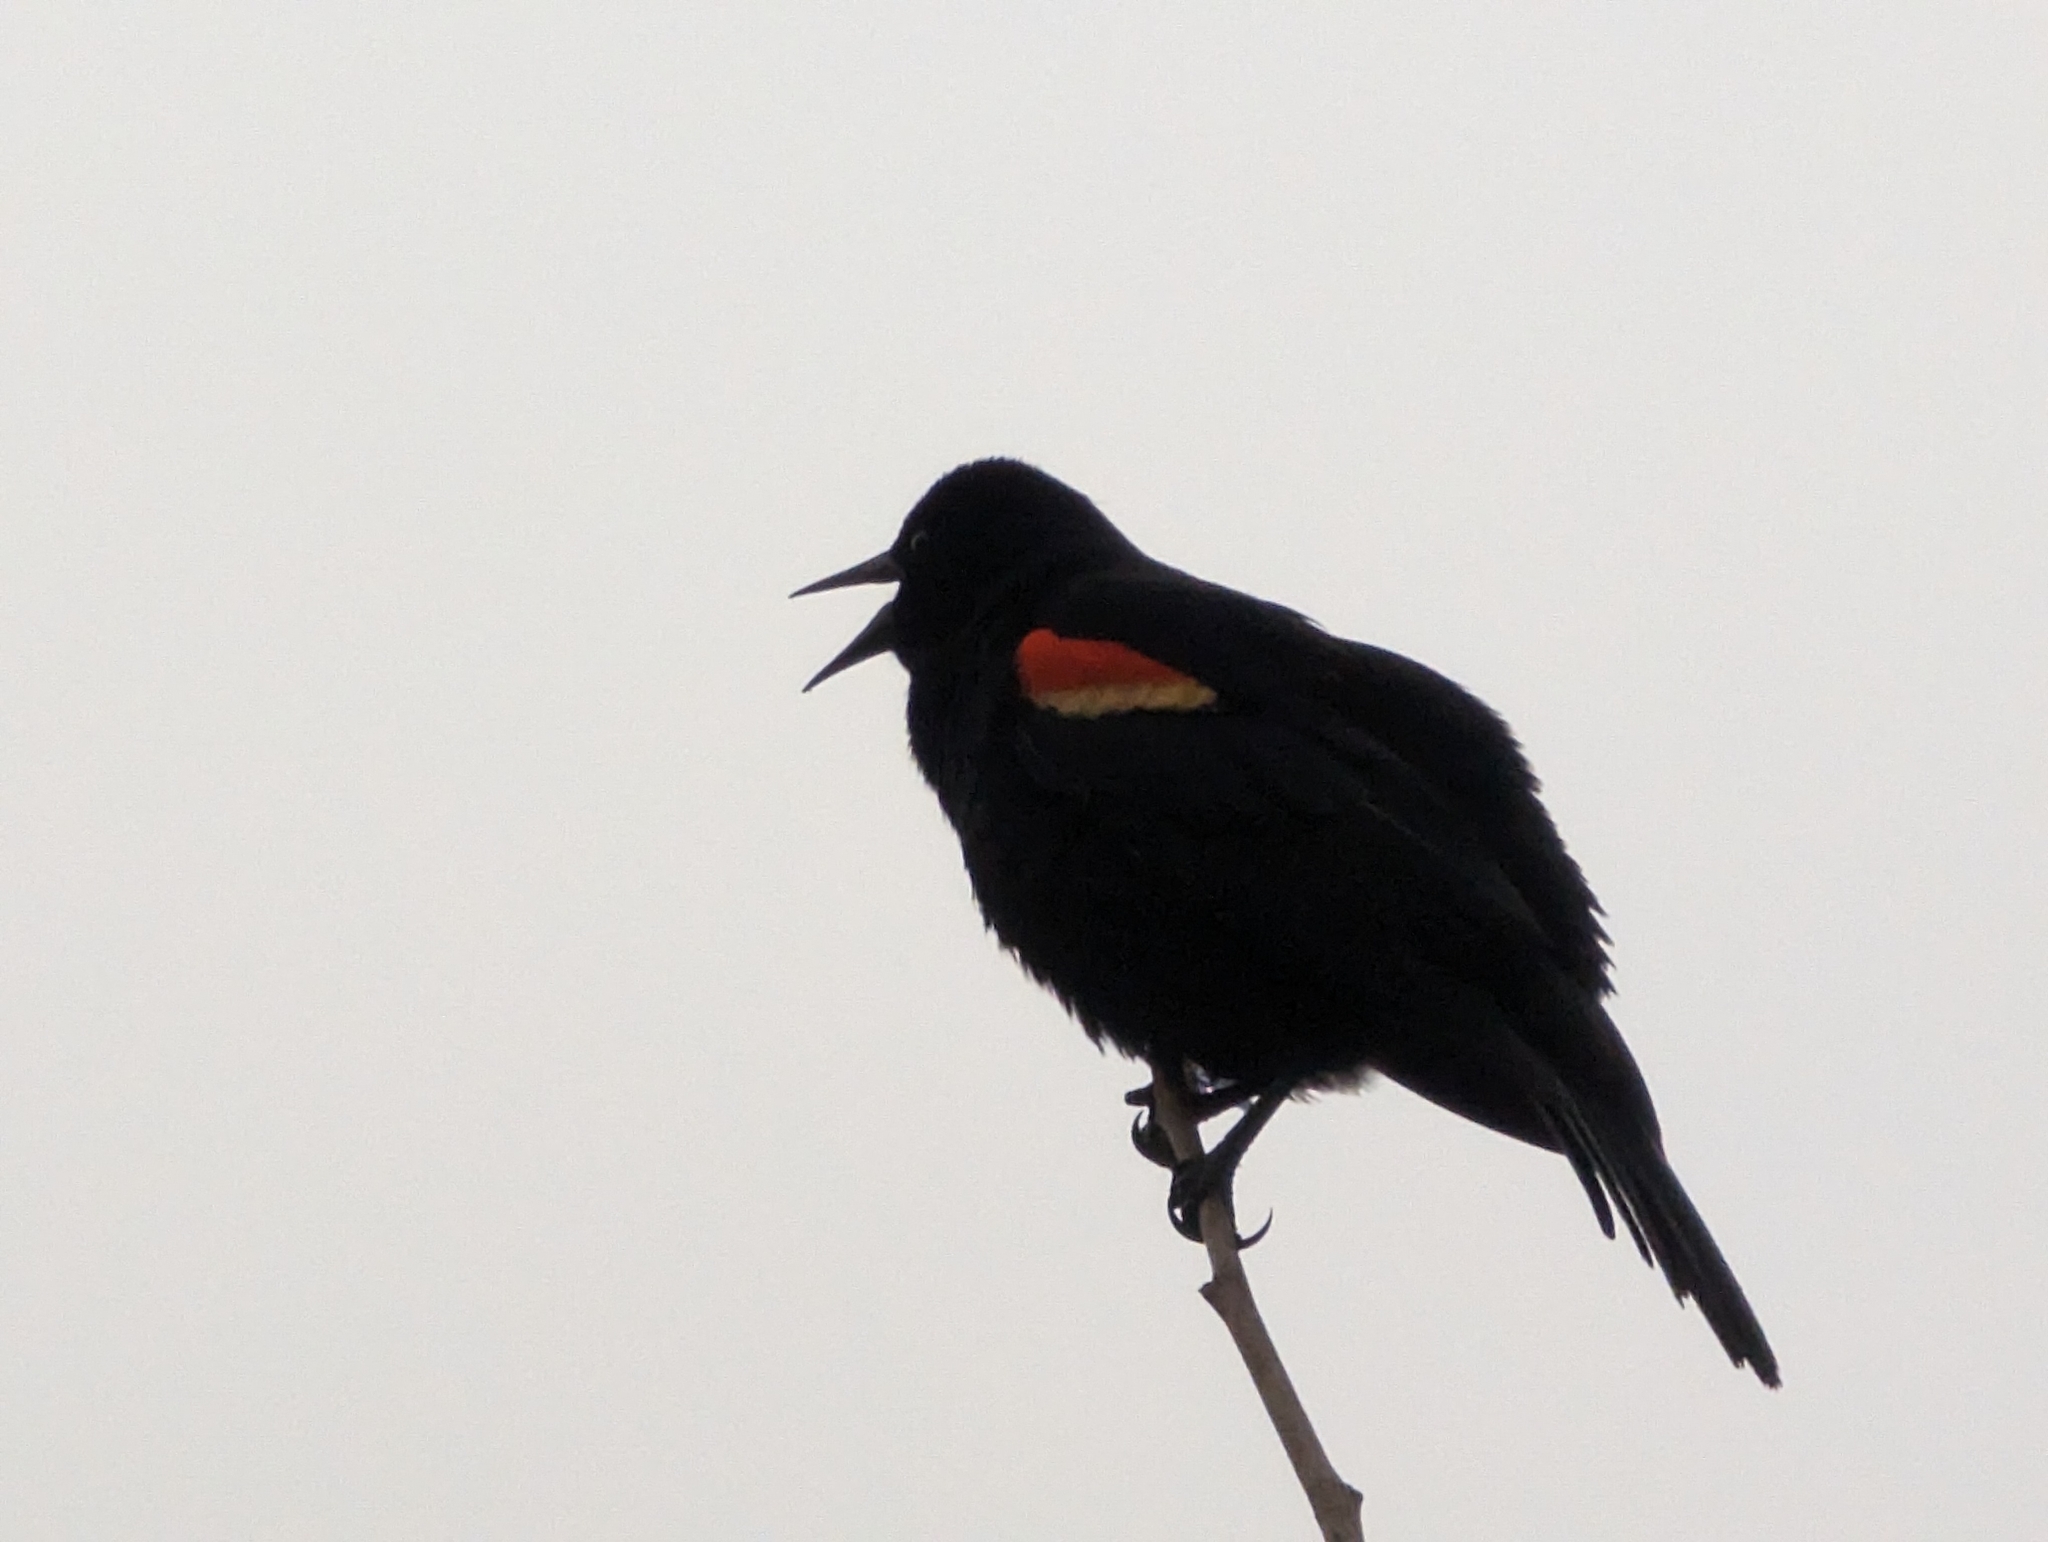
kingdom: Animalia
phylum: Chordata
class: Aves
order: Passeriformes
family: Icteridae
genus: Agelaius
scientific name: Agelaius phoeniceus
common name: Red-winged blackbird
